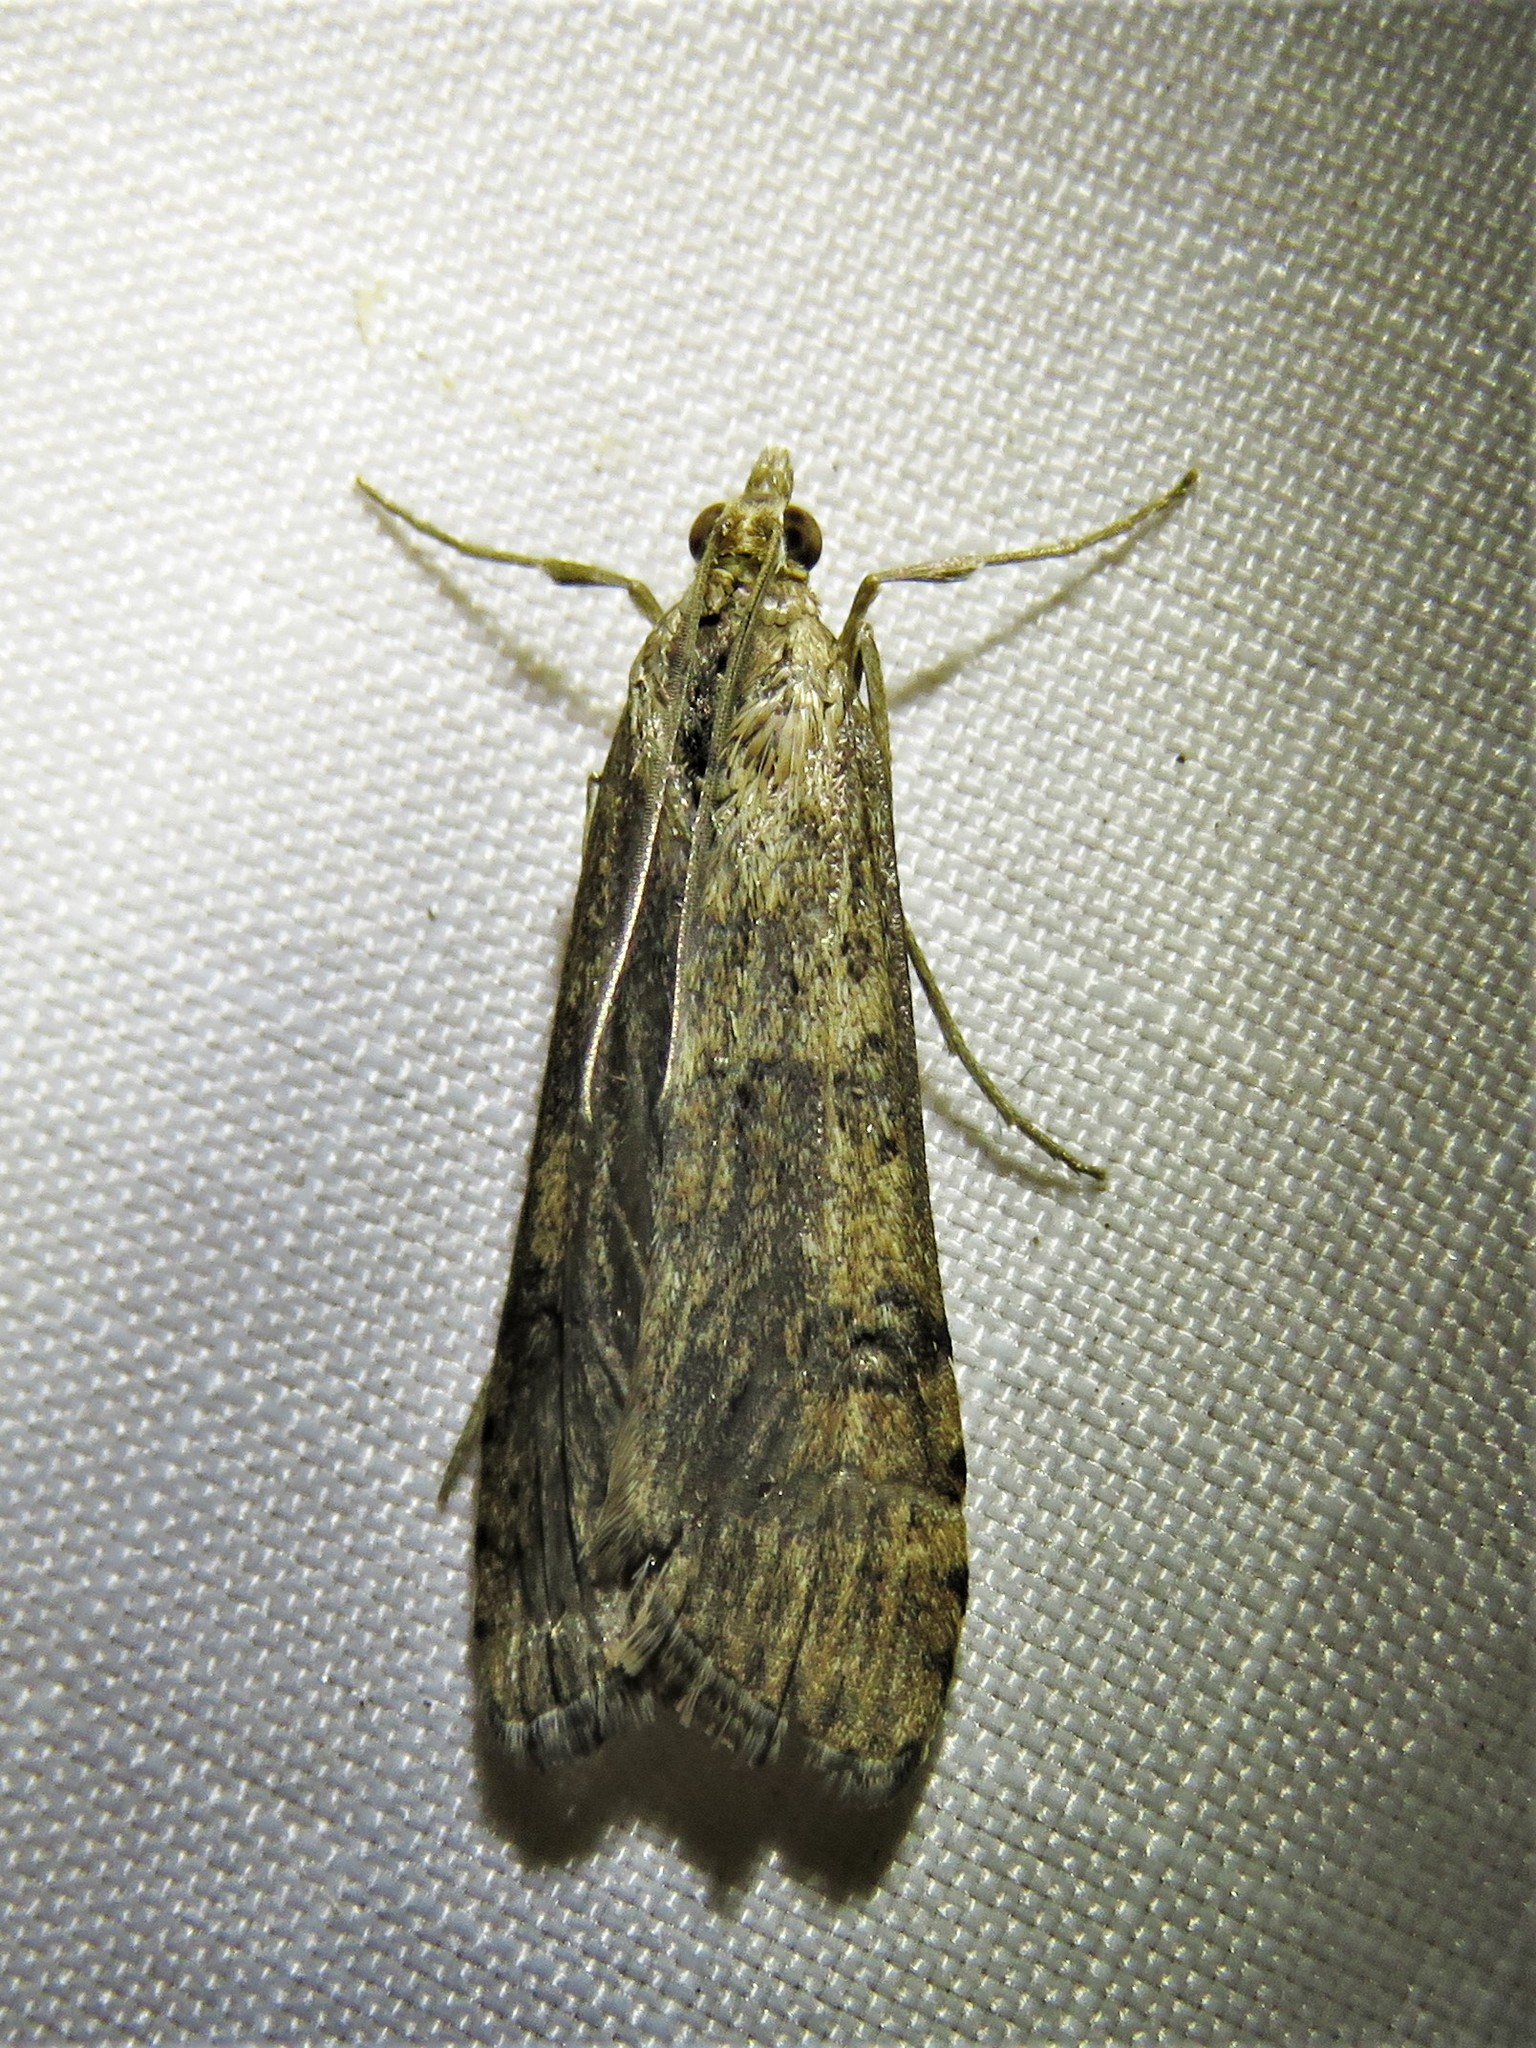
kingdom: Animalia
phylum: Arthropoda
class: Insecta
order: Lepidoptera
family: Crambidae
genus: Nomophila
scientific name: Nomophila nearctica
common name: American rush veneer
